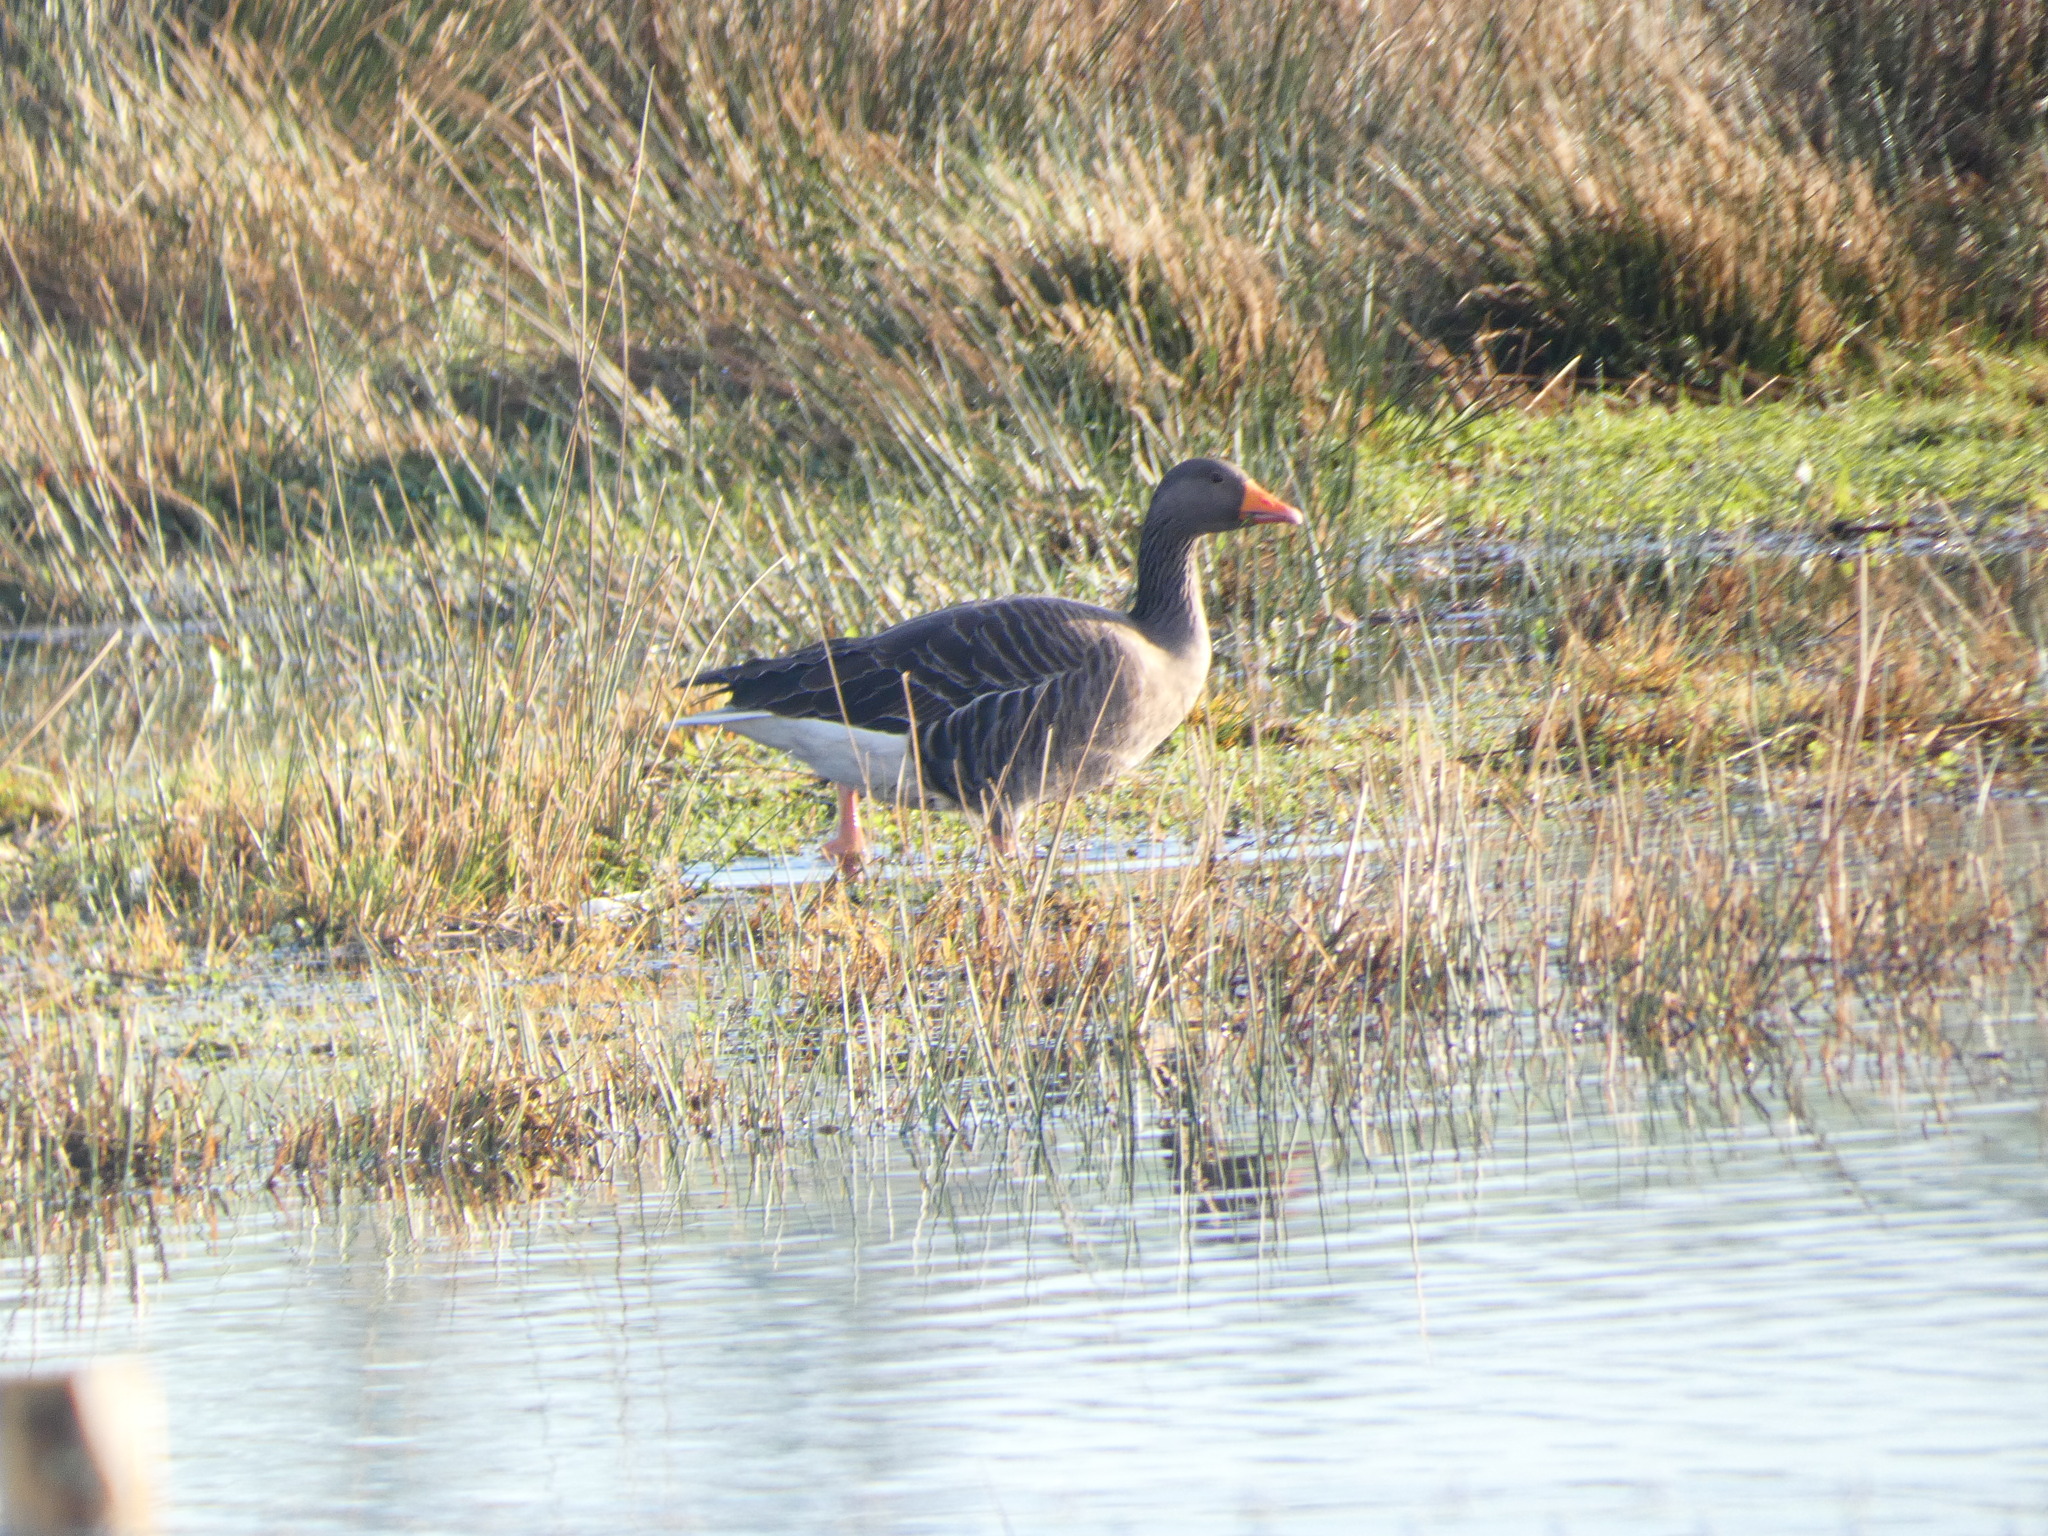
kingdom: Animalia
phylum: Chordata
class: Aves
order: Anseriformes
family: Anatidae
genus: Anser
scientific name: Anser anser
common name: Greylag goose
